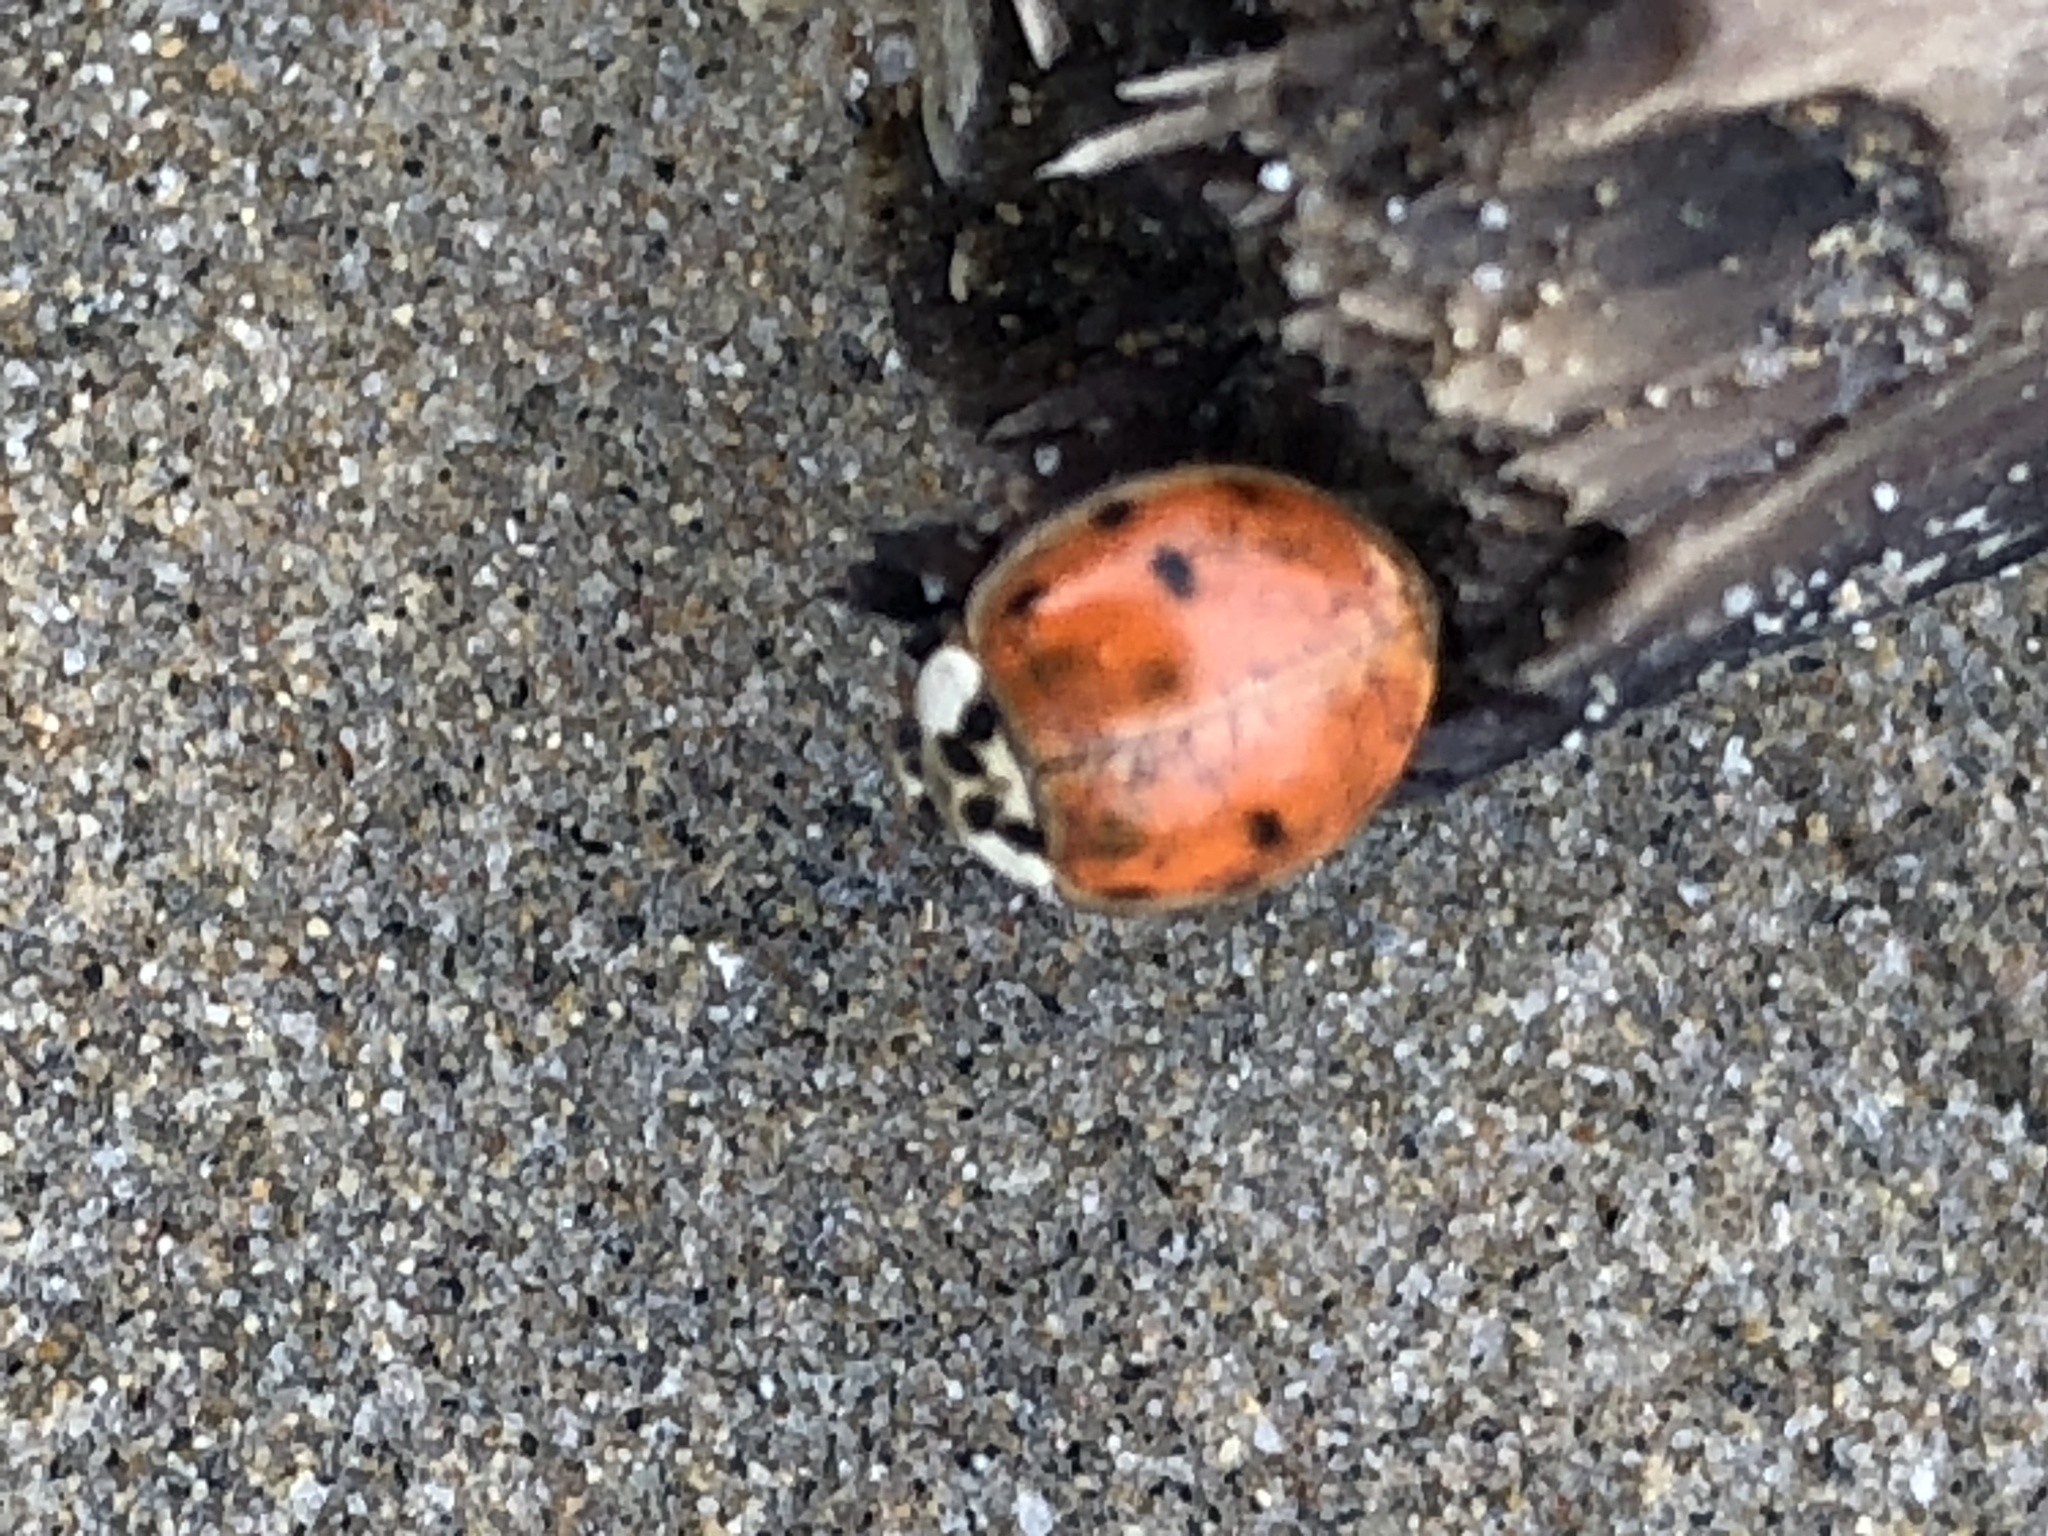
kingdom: Animalia
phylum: Arthropoda
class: Insecta
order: Coleoptera
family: Coccinellidae
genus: Harmonia
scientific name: Harmonia axyridis
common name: Harlequin ladybird
